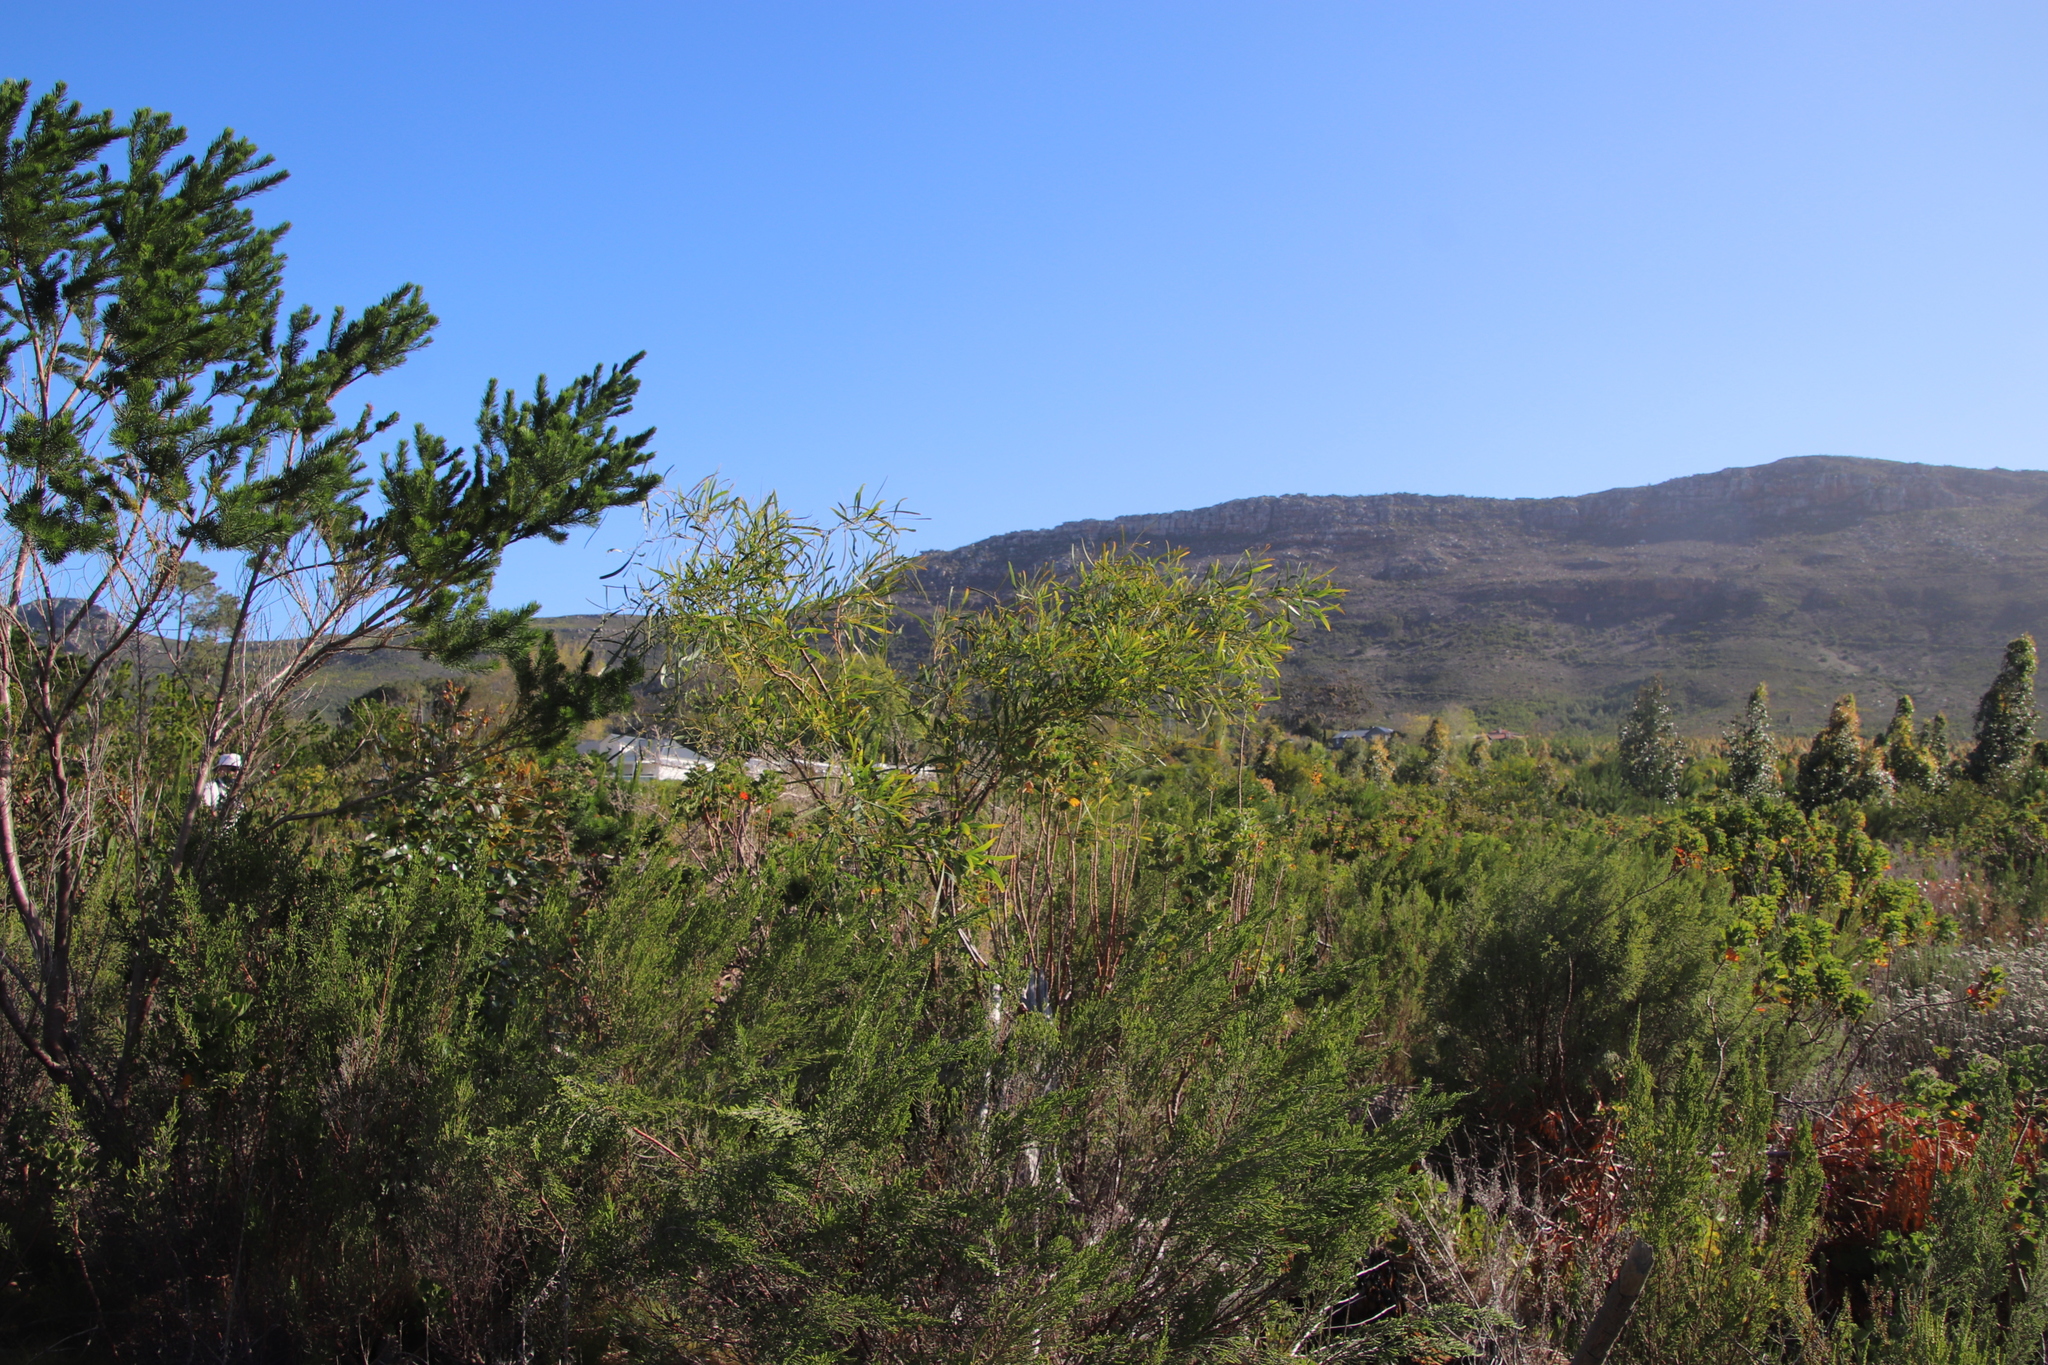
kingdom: Plantae
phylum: Tracheophyta
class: Magnoliopsida
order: Fabales
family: Fabaceae
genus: Acacia
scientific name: Acacia saligna
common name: Orange wattle
